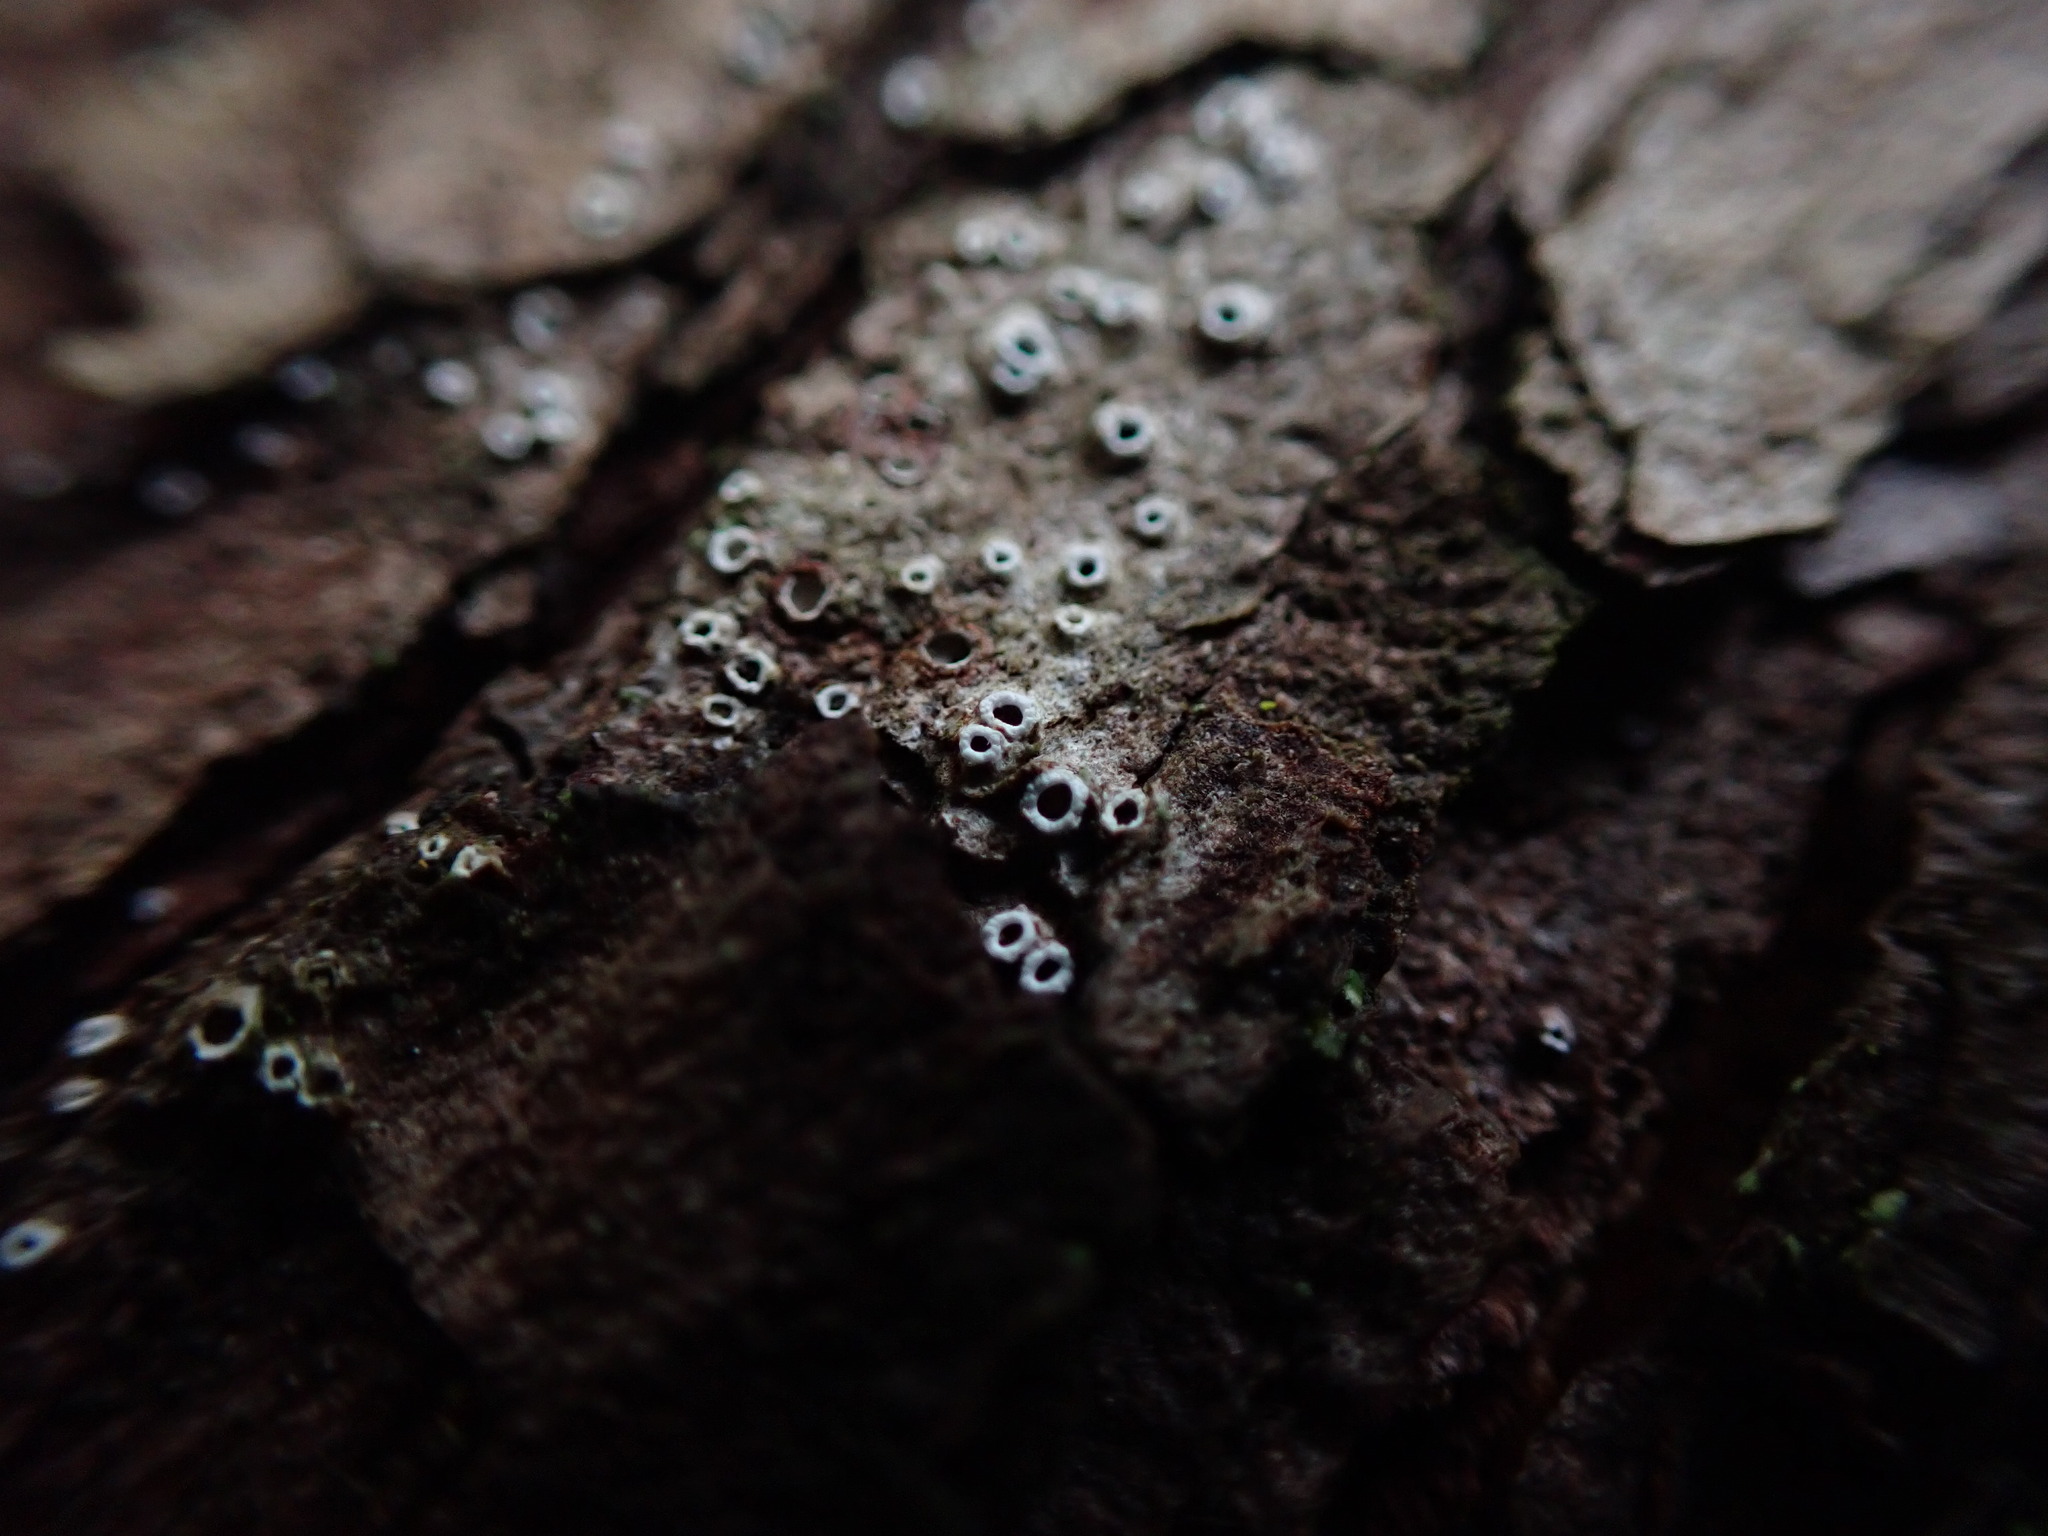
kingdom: Fungi
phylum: Ascomycota
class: Lecanoromycetes
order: Ostropales
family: Stictidaceae
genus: Stictis
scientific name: Stictis radiata
